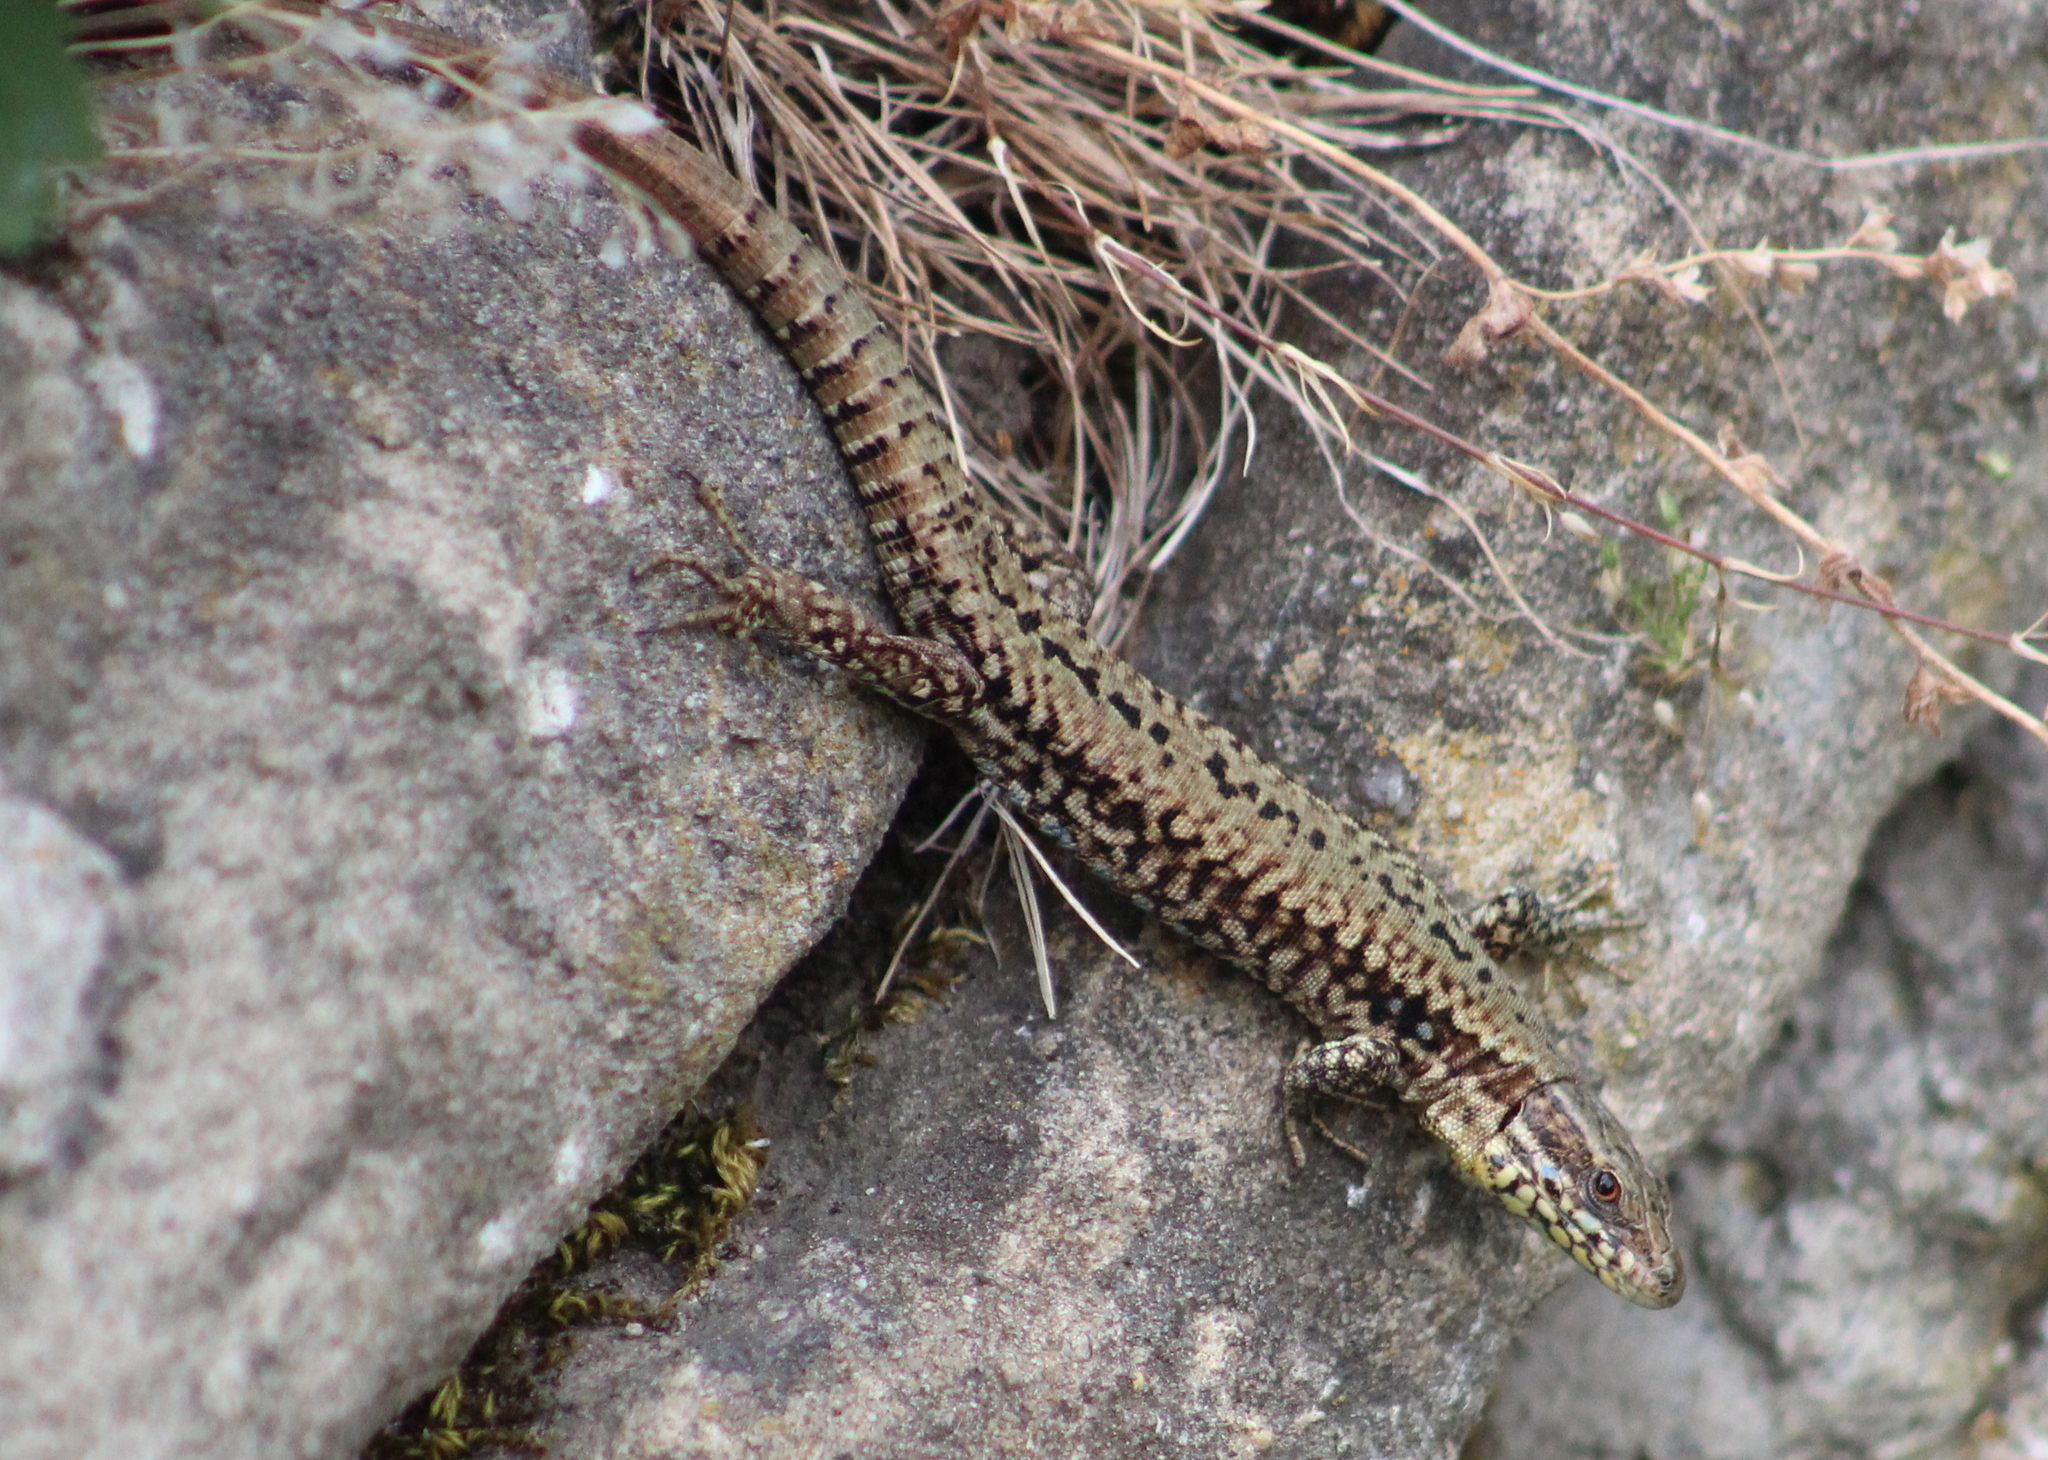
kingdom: Animalia
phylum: Chordata
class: Squamata
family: Lacertidae
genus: Podarcis
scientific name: Podarcis muralis
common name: Common wall lizard
